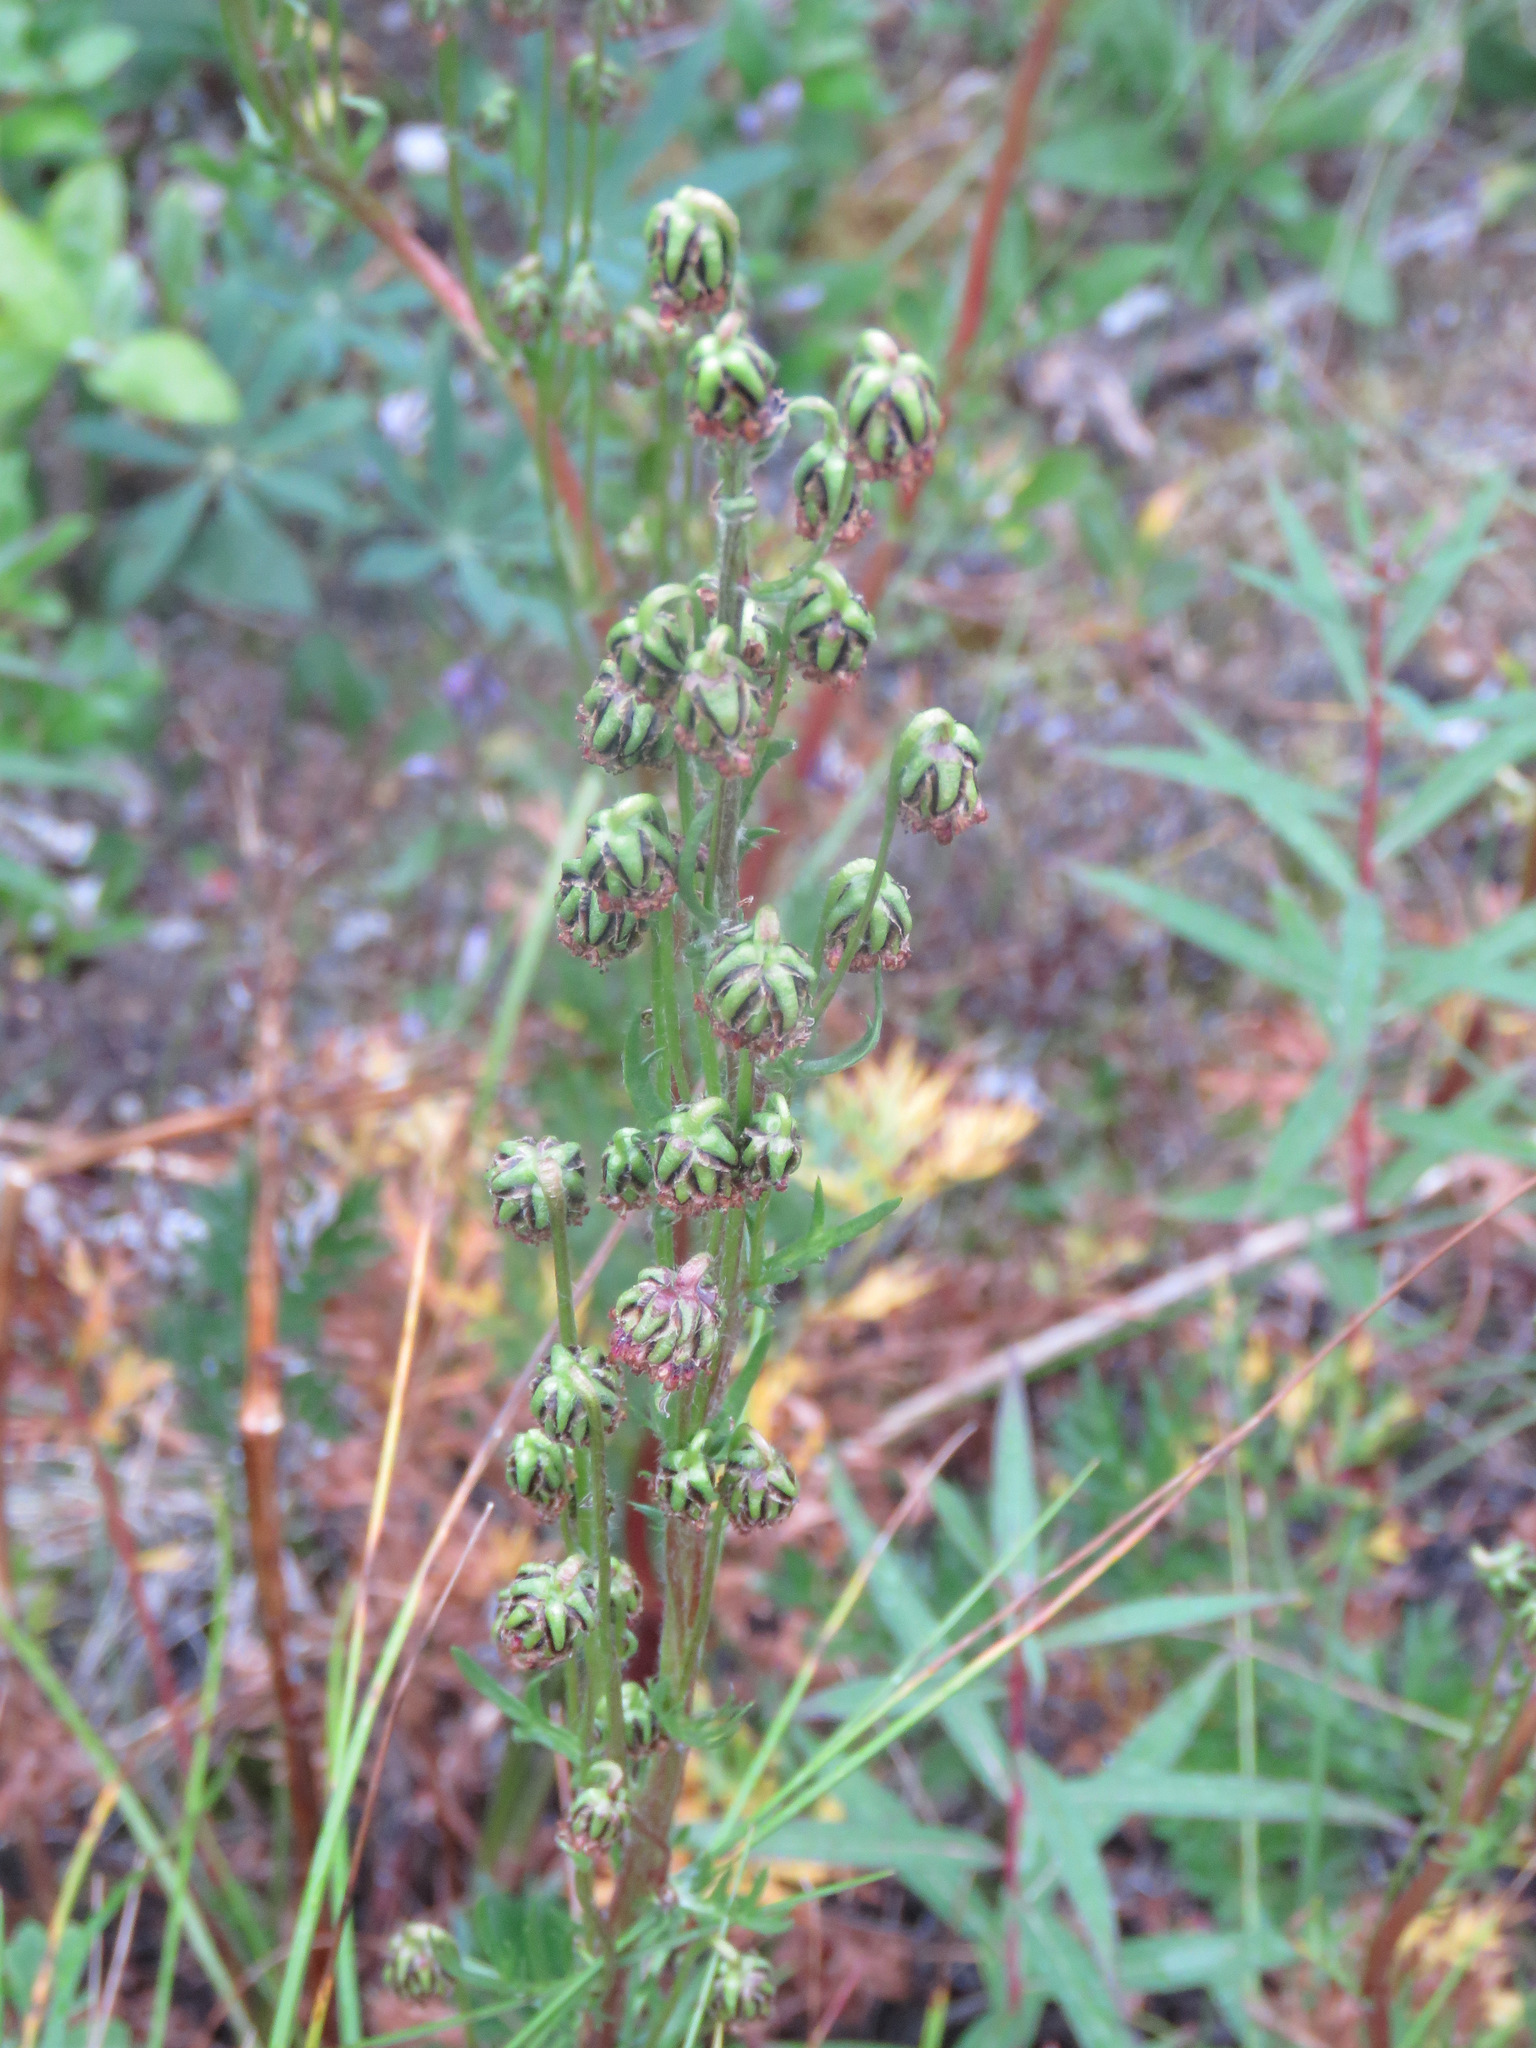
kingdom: Plantae
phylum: Tracheophyta
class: Magnoliopsida
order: Asterales
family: Asteraceae
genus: Artemisia
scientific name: Artemisia norvegica
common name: Norwegian mugwort
